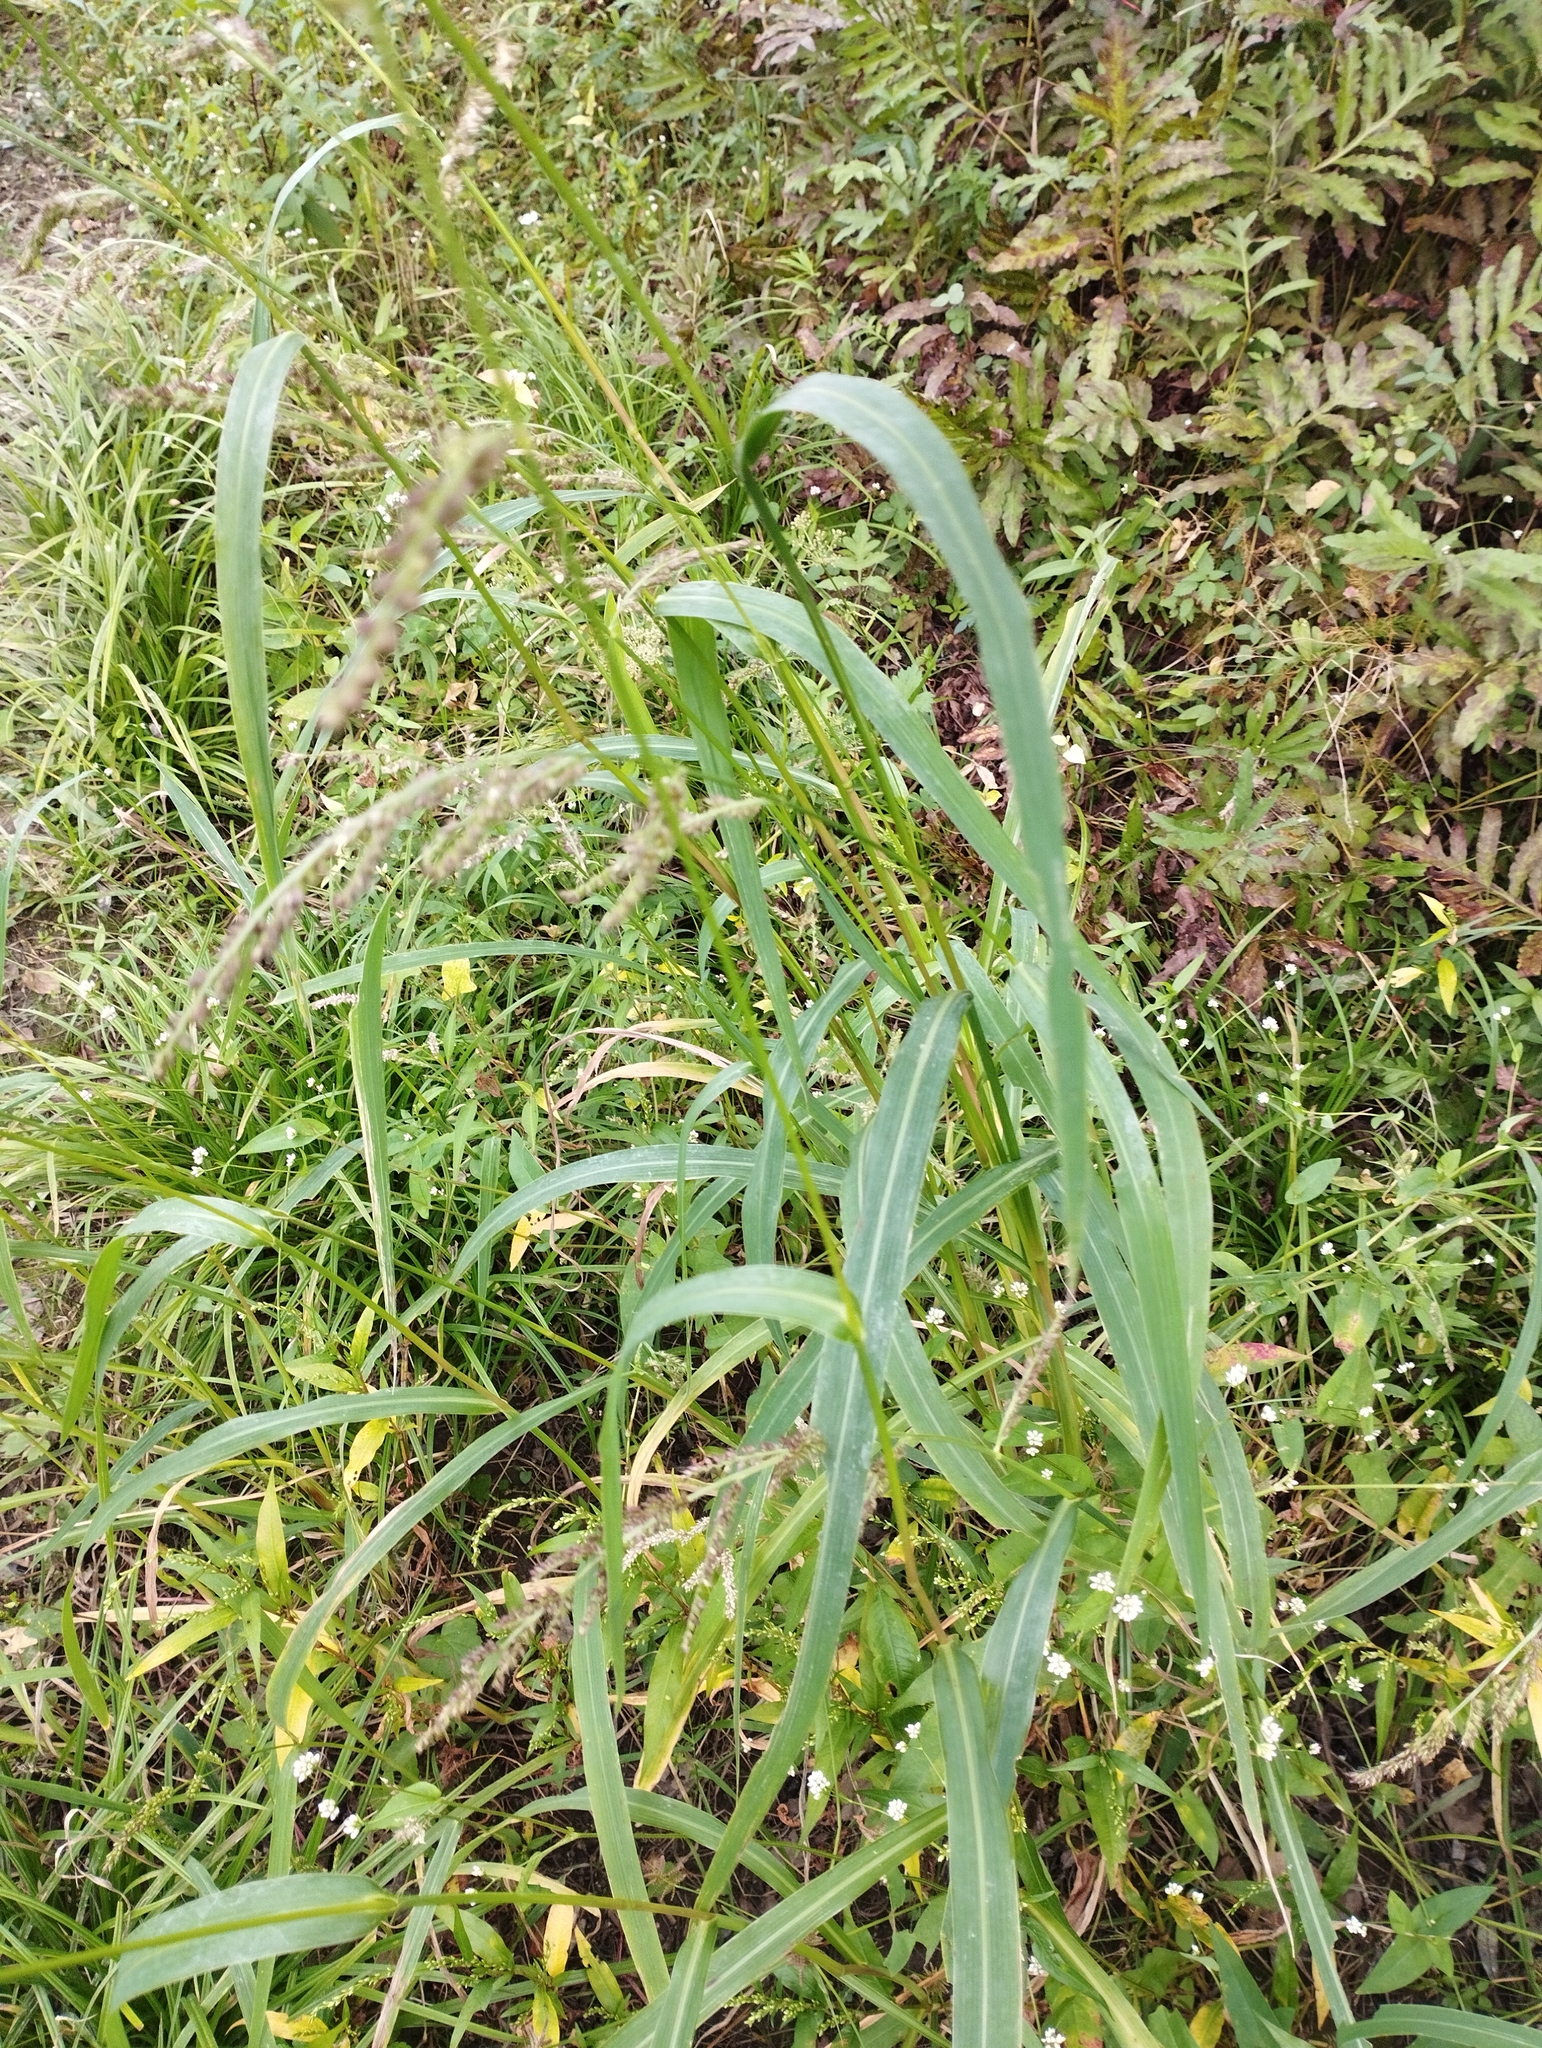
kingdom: Plantae
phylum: Tracheophyta
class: Liliopsida
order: Poales
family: Poaceae
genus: Echinochloa
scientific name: Echinochloa crus-galli
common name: Cockspur
